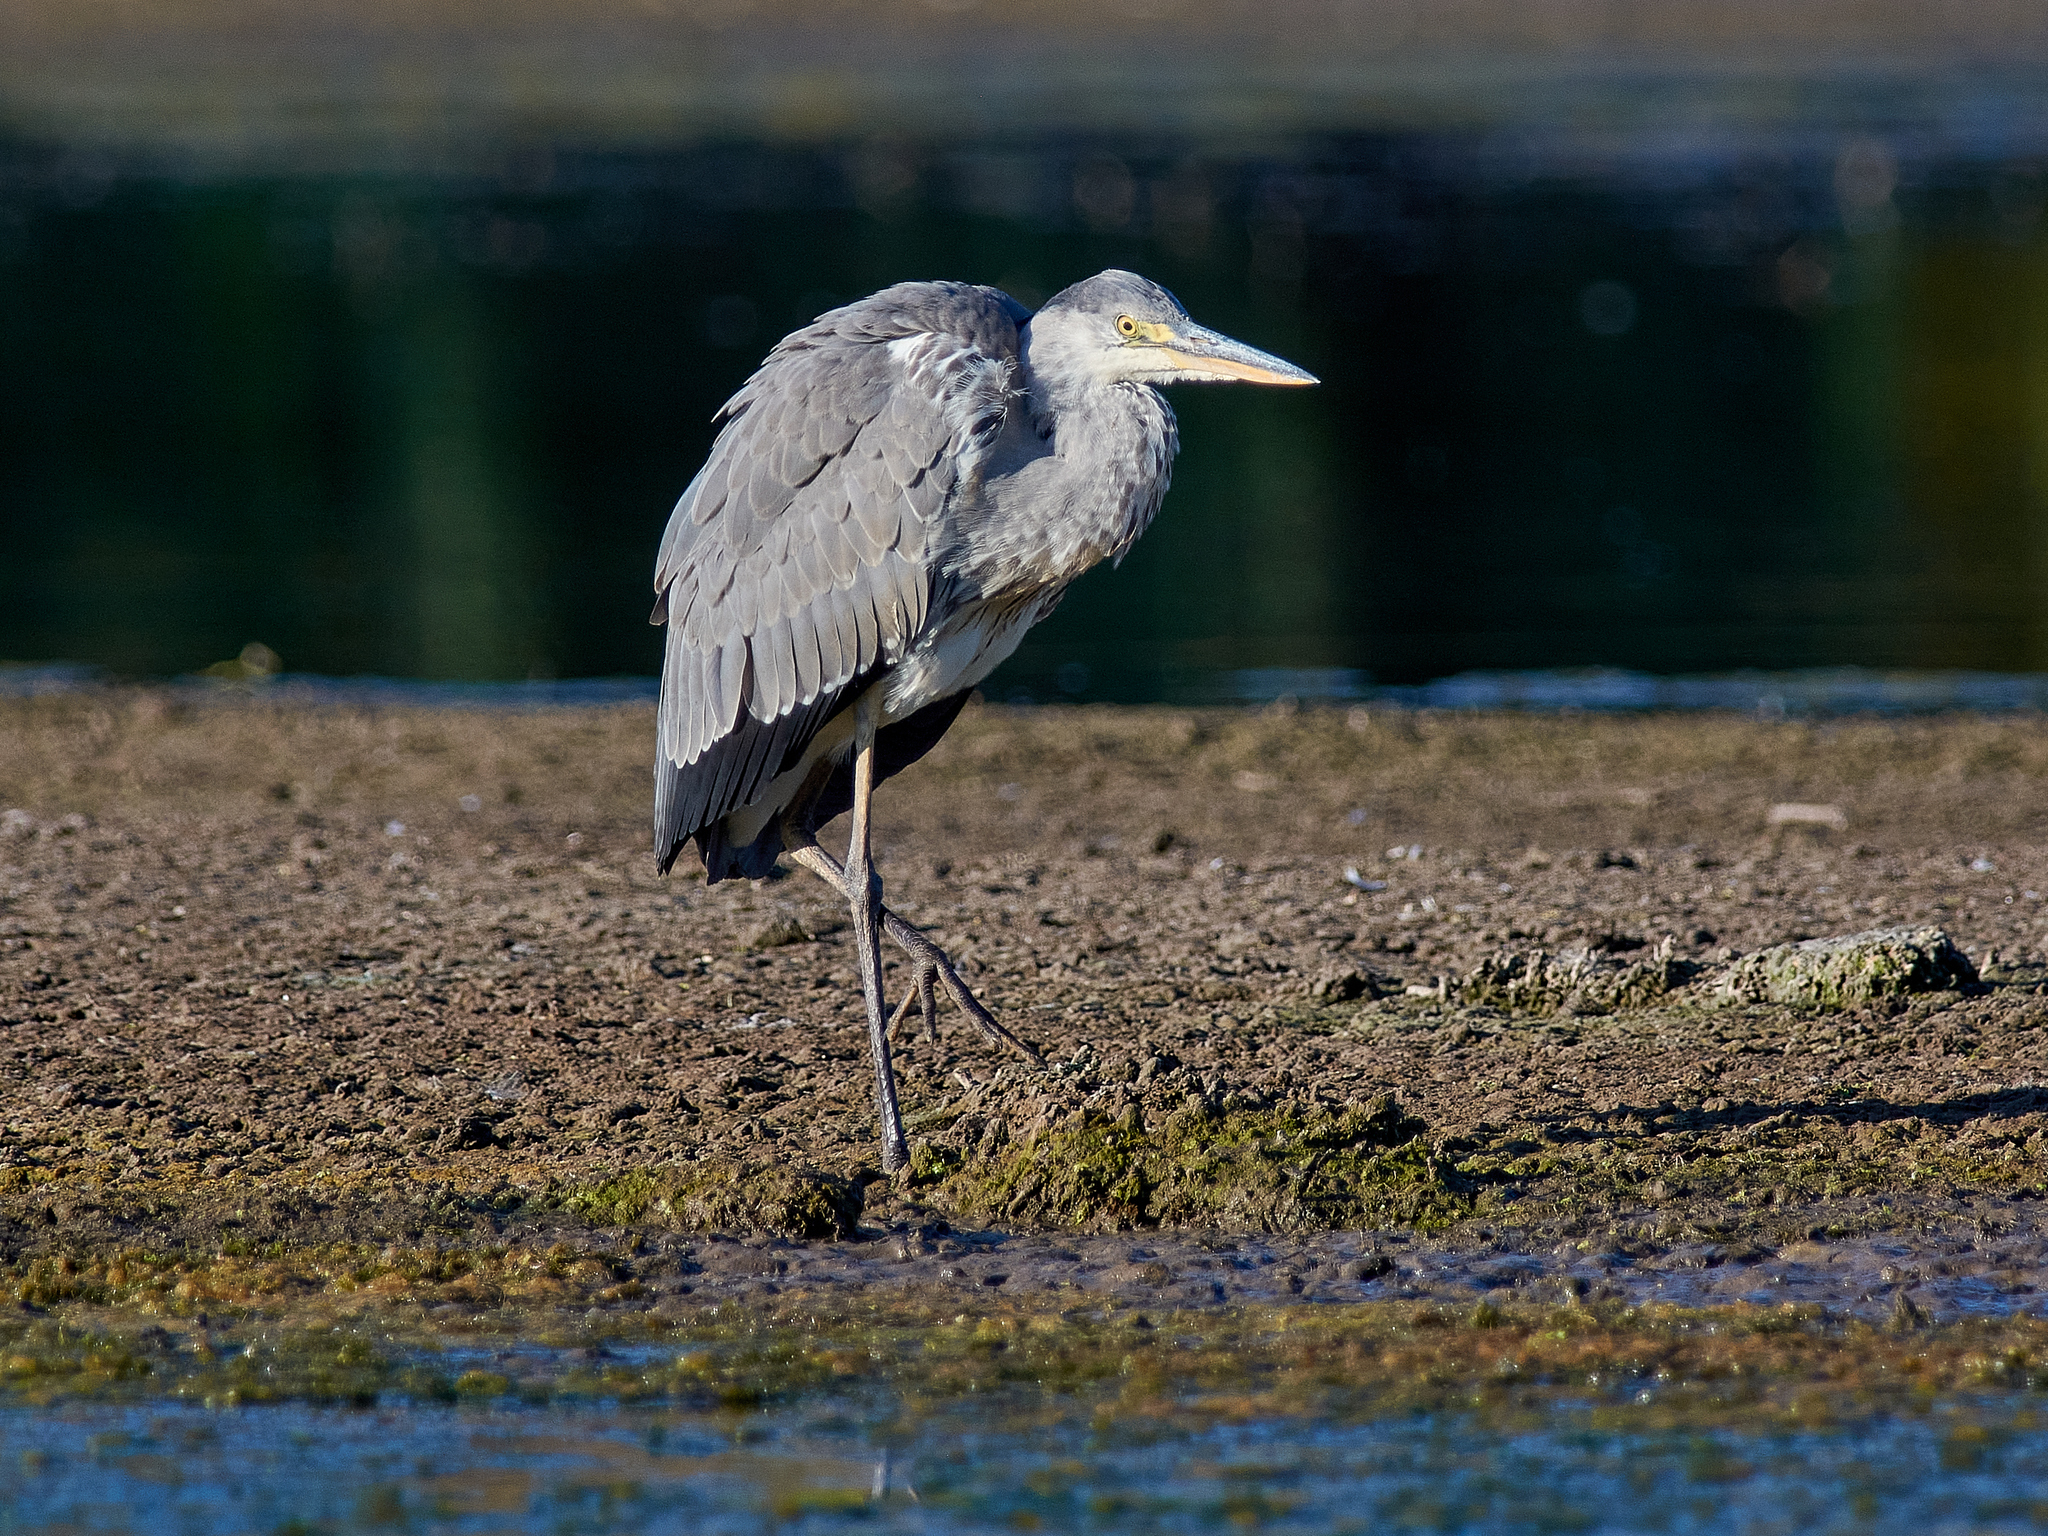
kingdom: Animalia
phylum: Chordata
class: Aves
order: Pelecaniformes
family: Ardeidae
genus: Ardea
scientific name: Ardea cinerea
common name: Grey heron
